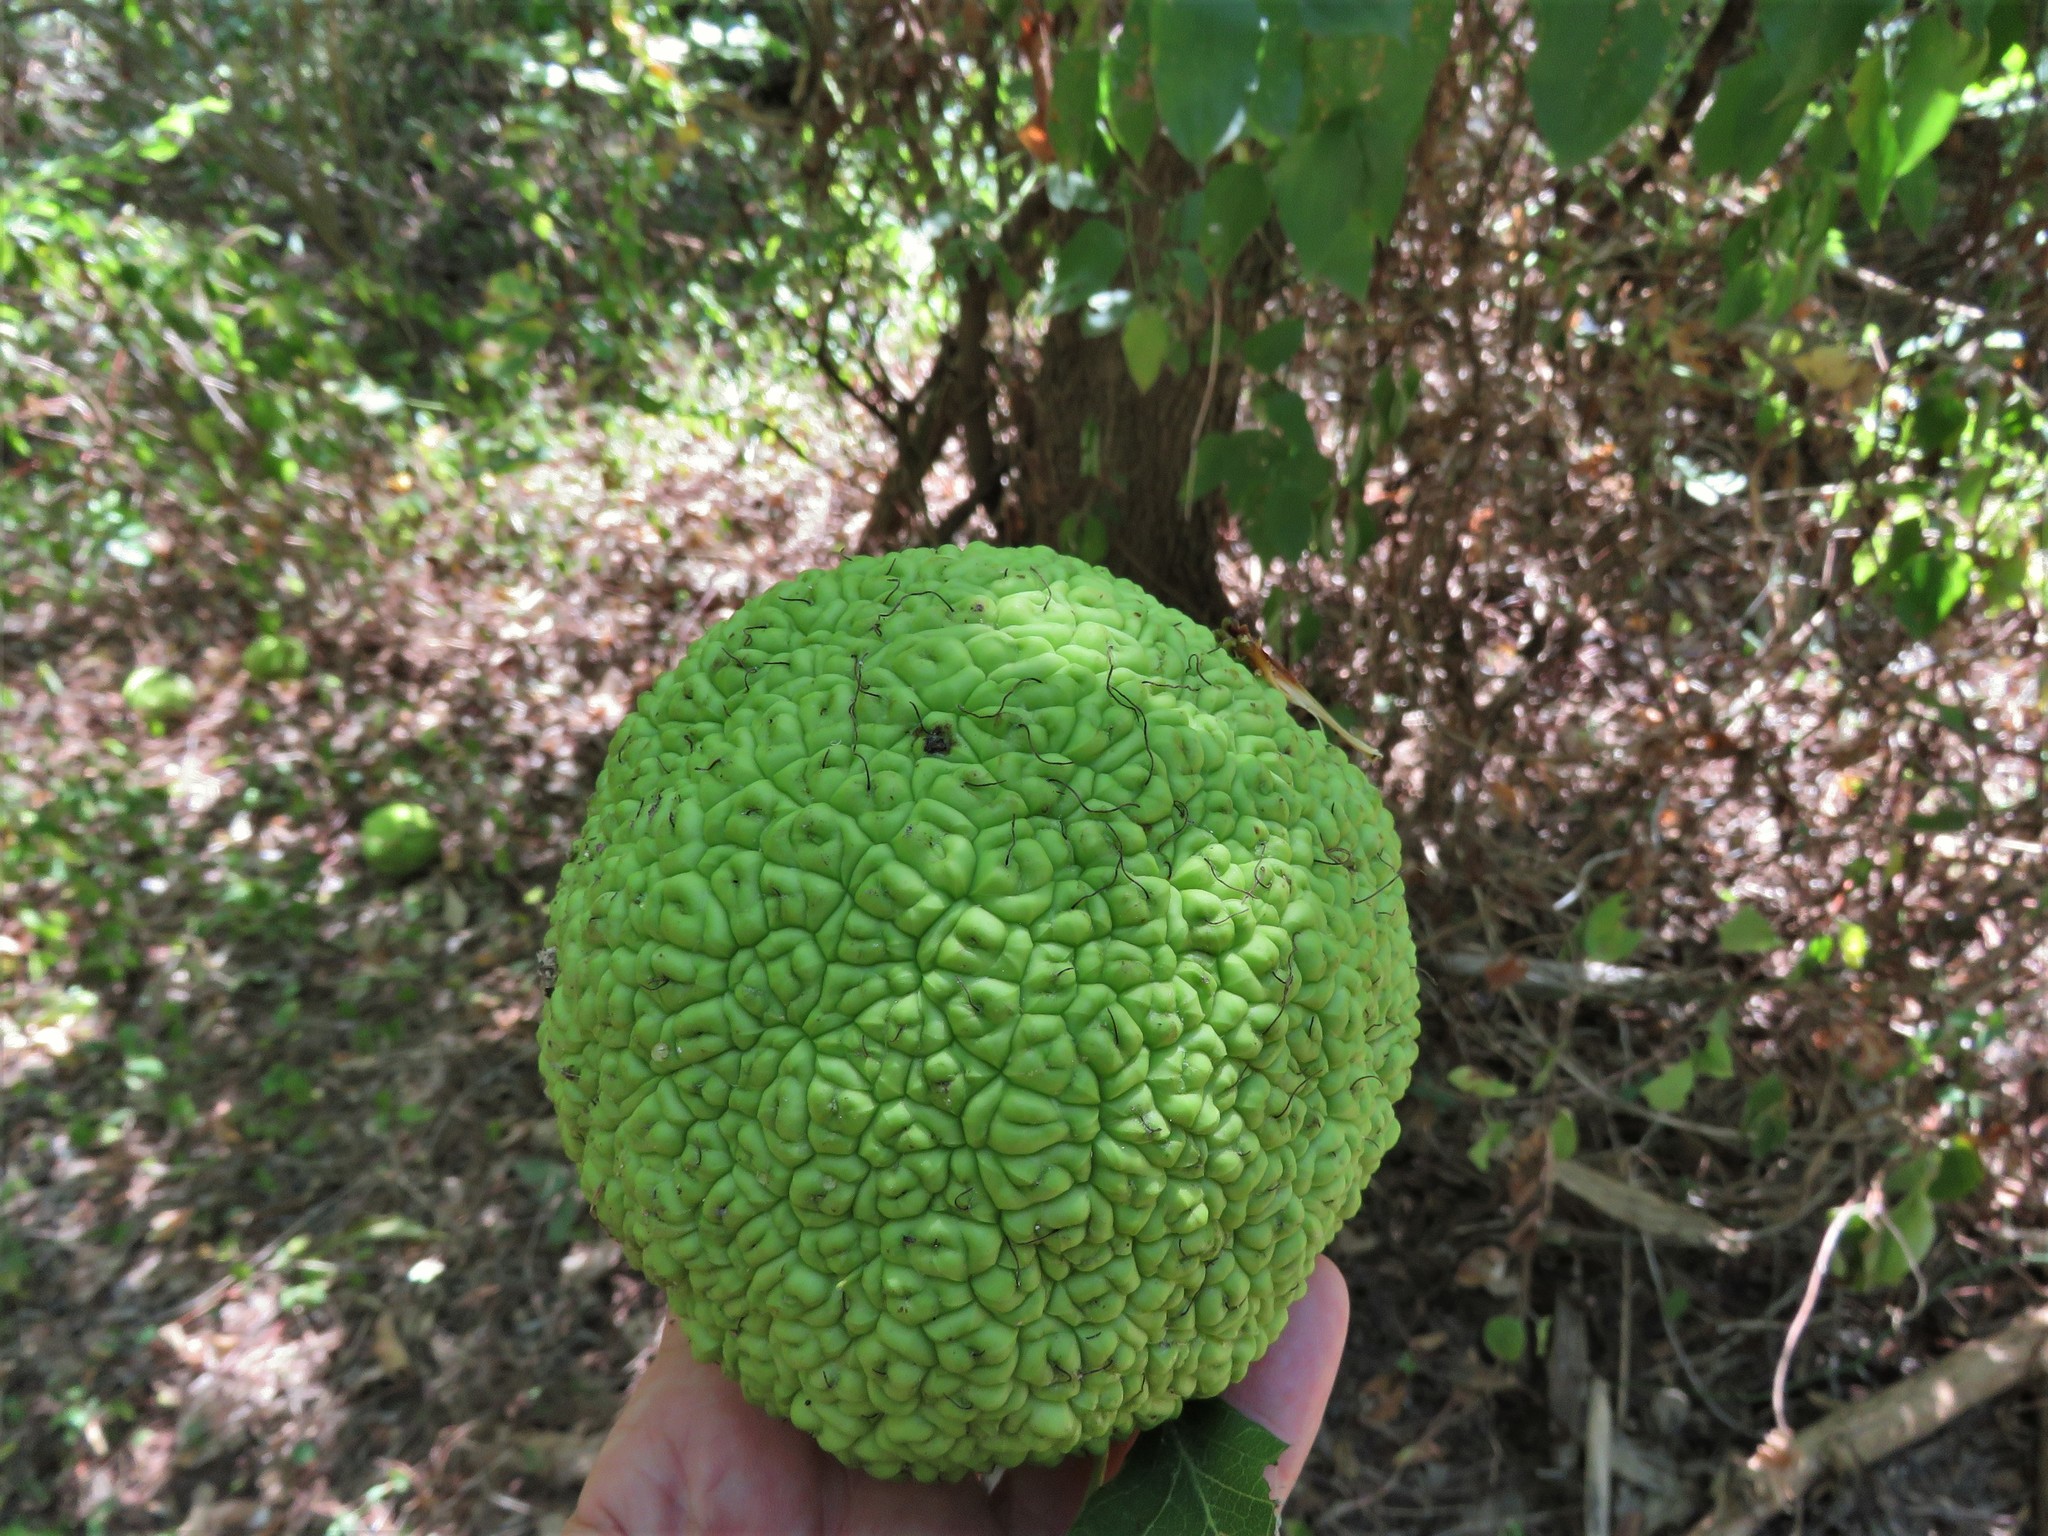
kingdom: Plantae
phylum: Tracheophyta
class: Magnoliopsida
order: Rosales
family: Moraceae
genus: Maclura
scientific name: Maclura pomifera
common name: Osage-orange
